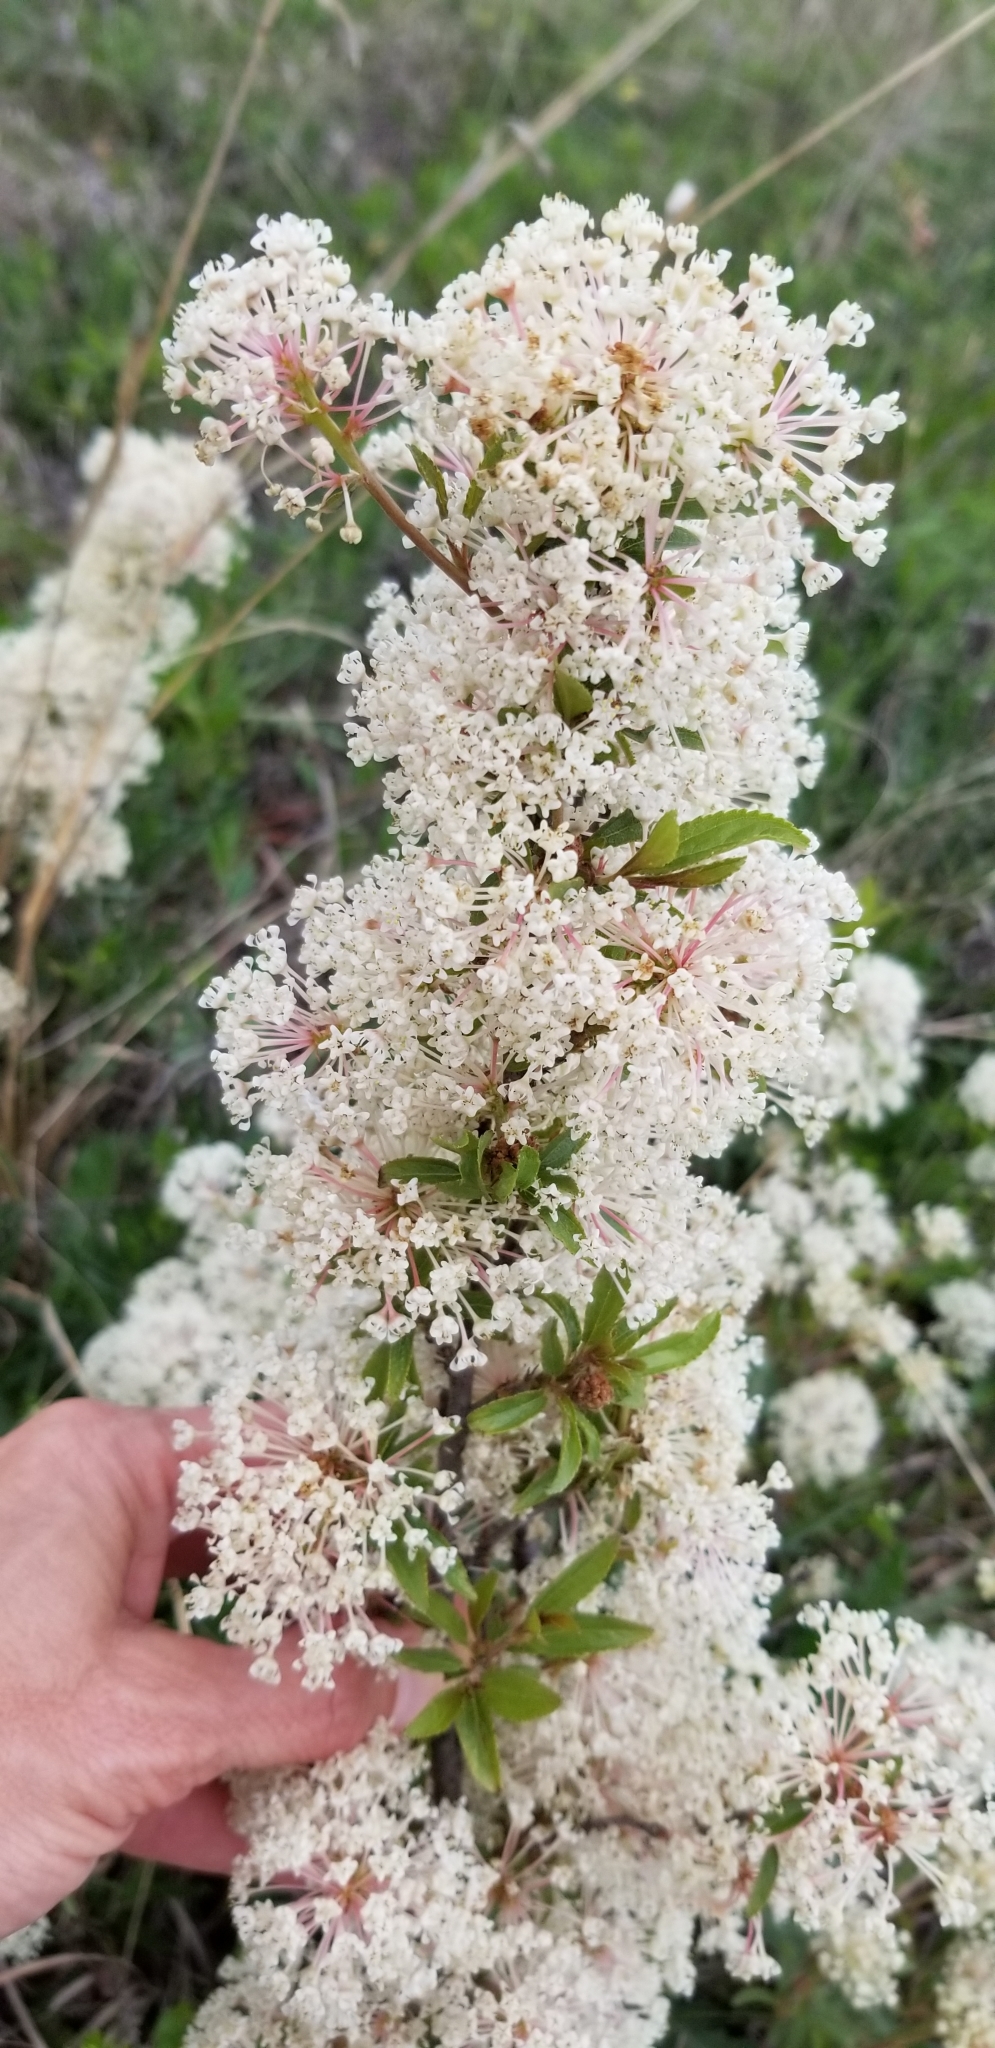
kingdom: Plantae
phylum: Tracheophyta
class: Magnoliopsida
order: Rosales
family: Rhamnaceae
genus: Ceanothus
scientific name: Ceanothus herbaceus
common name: Inland ceanothus
